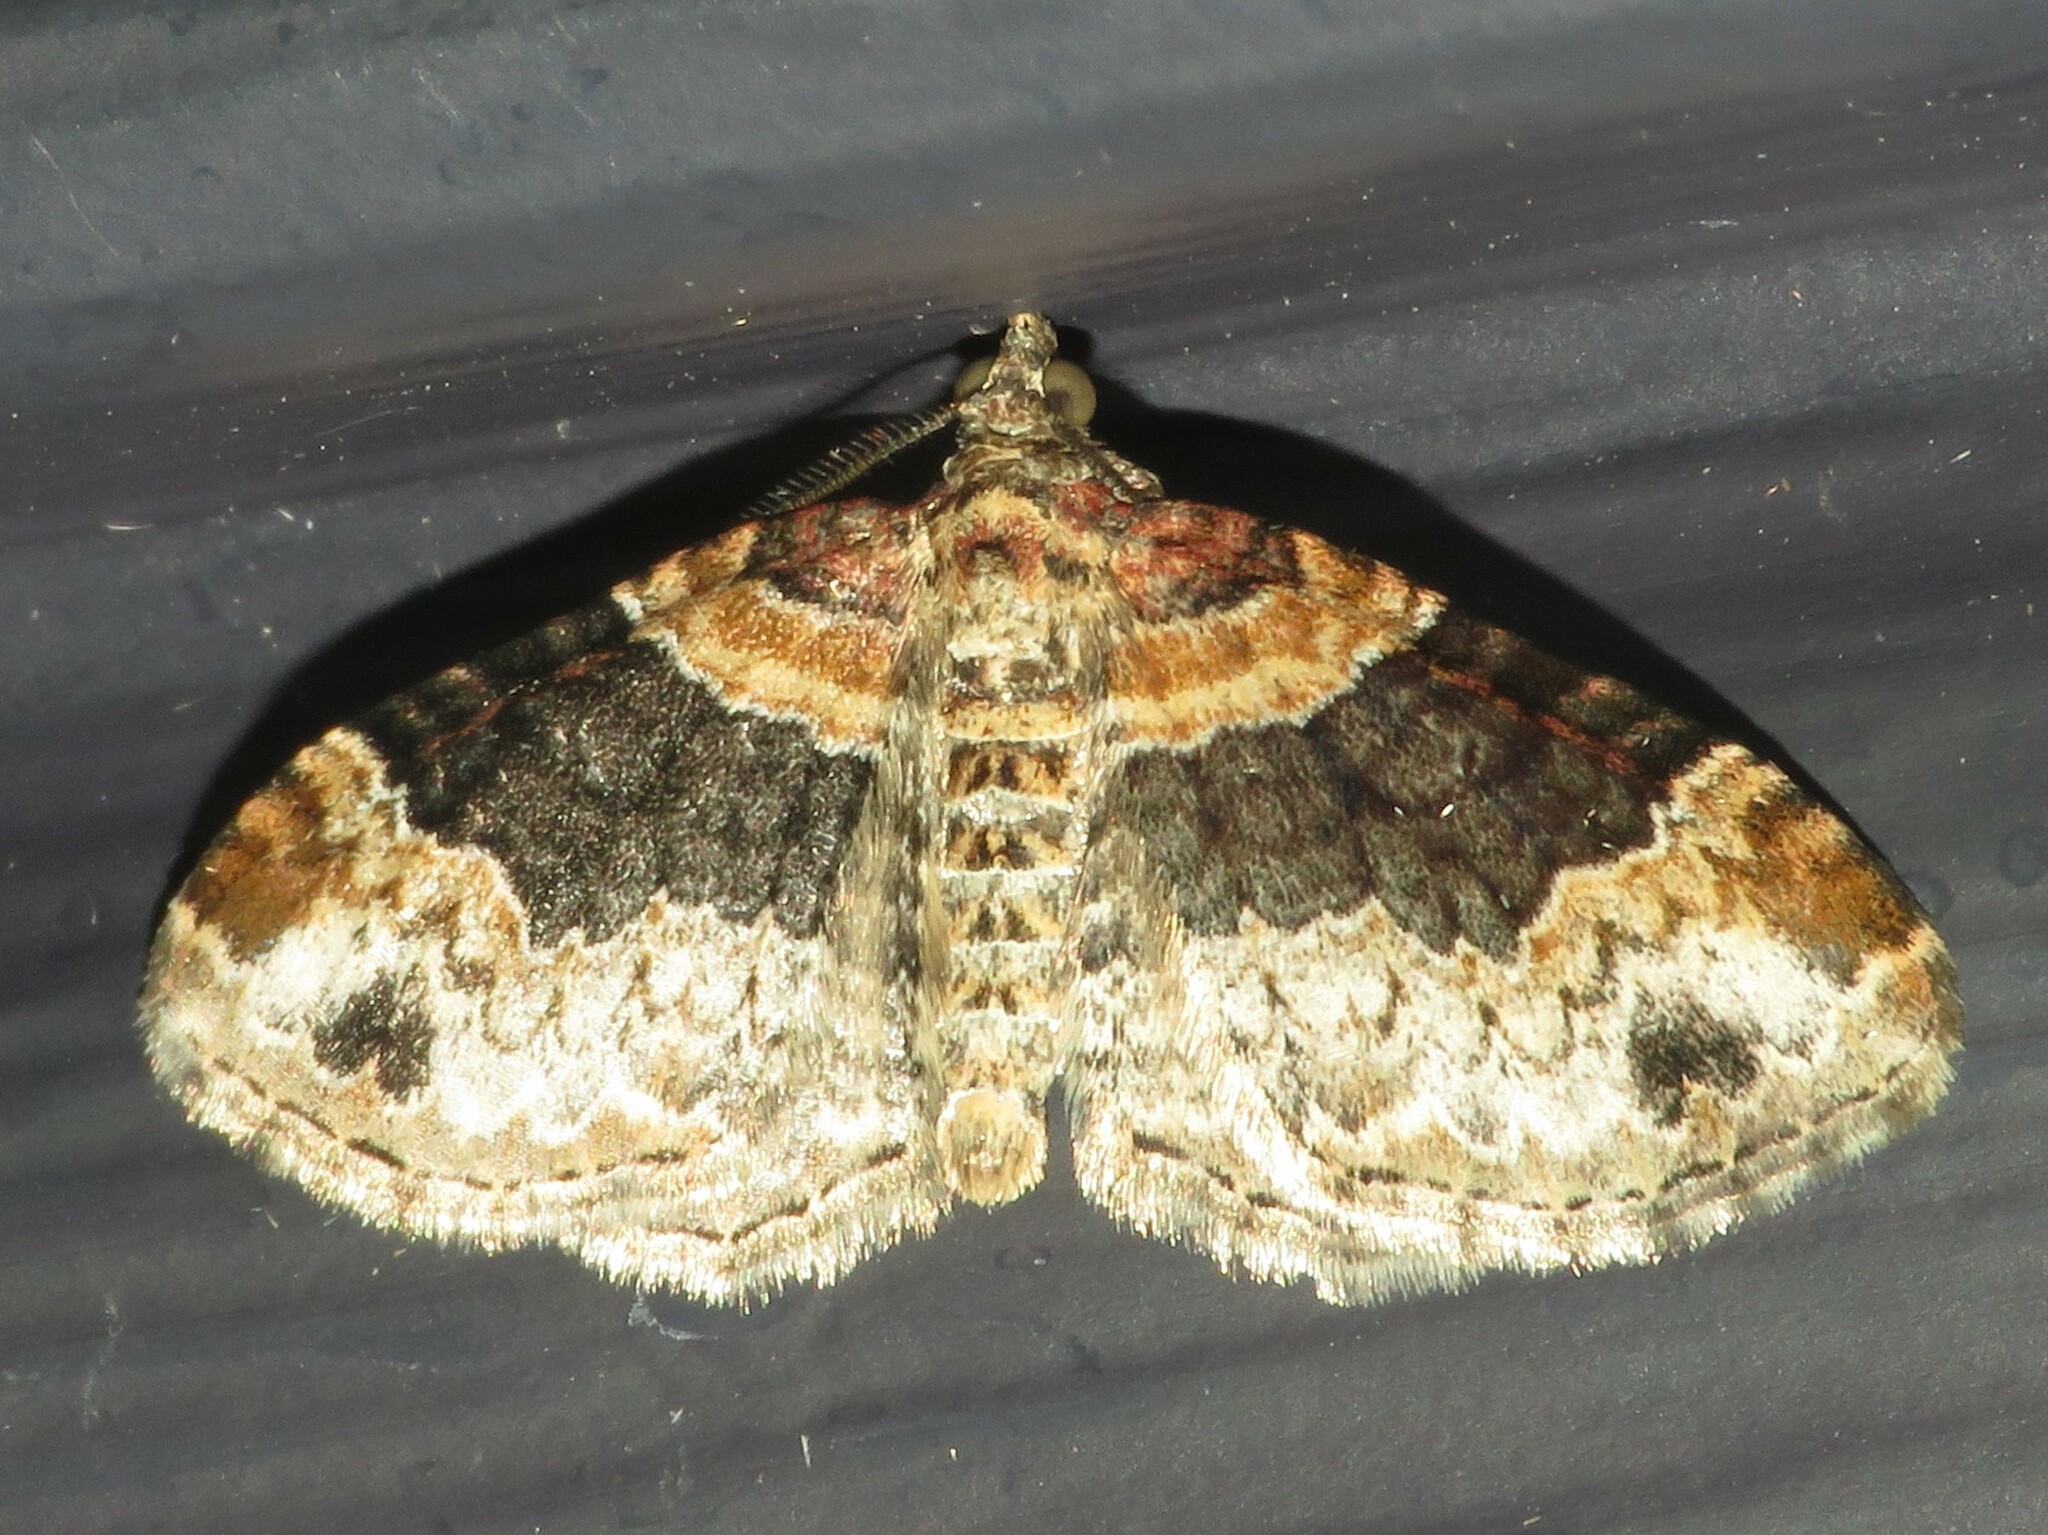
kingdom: Animalia
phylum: Arthropoda
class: Insecta
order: Lepidoptera
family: Geometridae
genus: Xanthorhoe
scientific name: Xanthorhoe ferrugata
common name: Dark-barred twin-spot carpet
